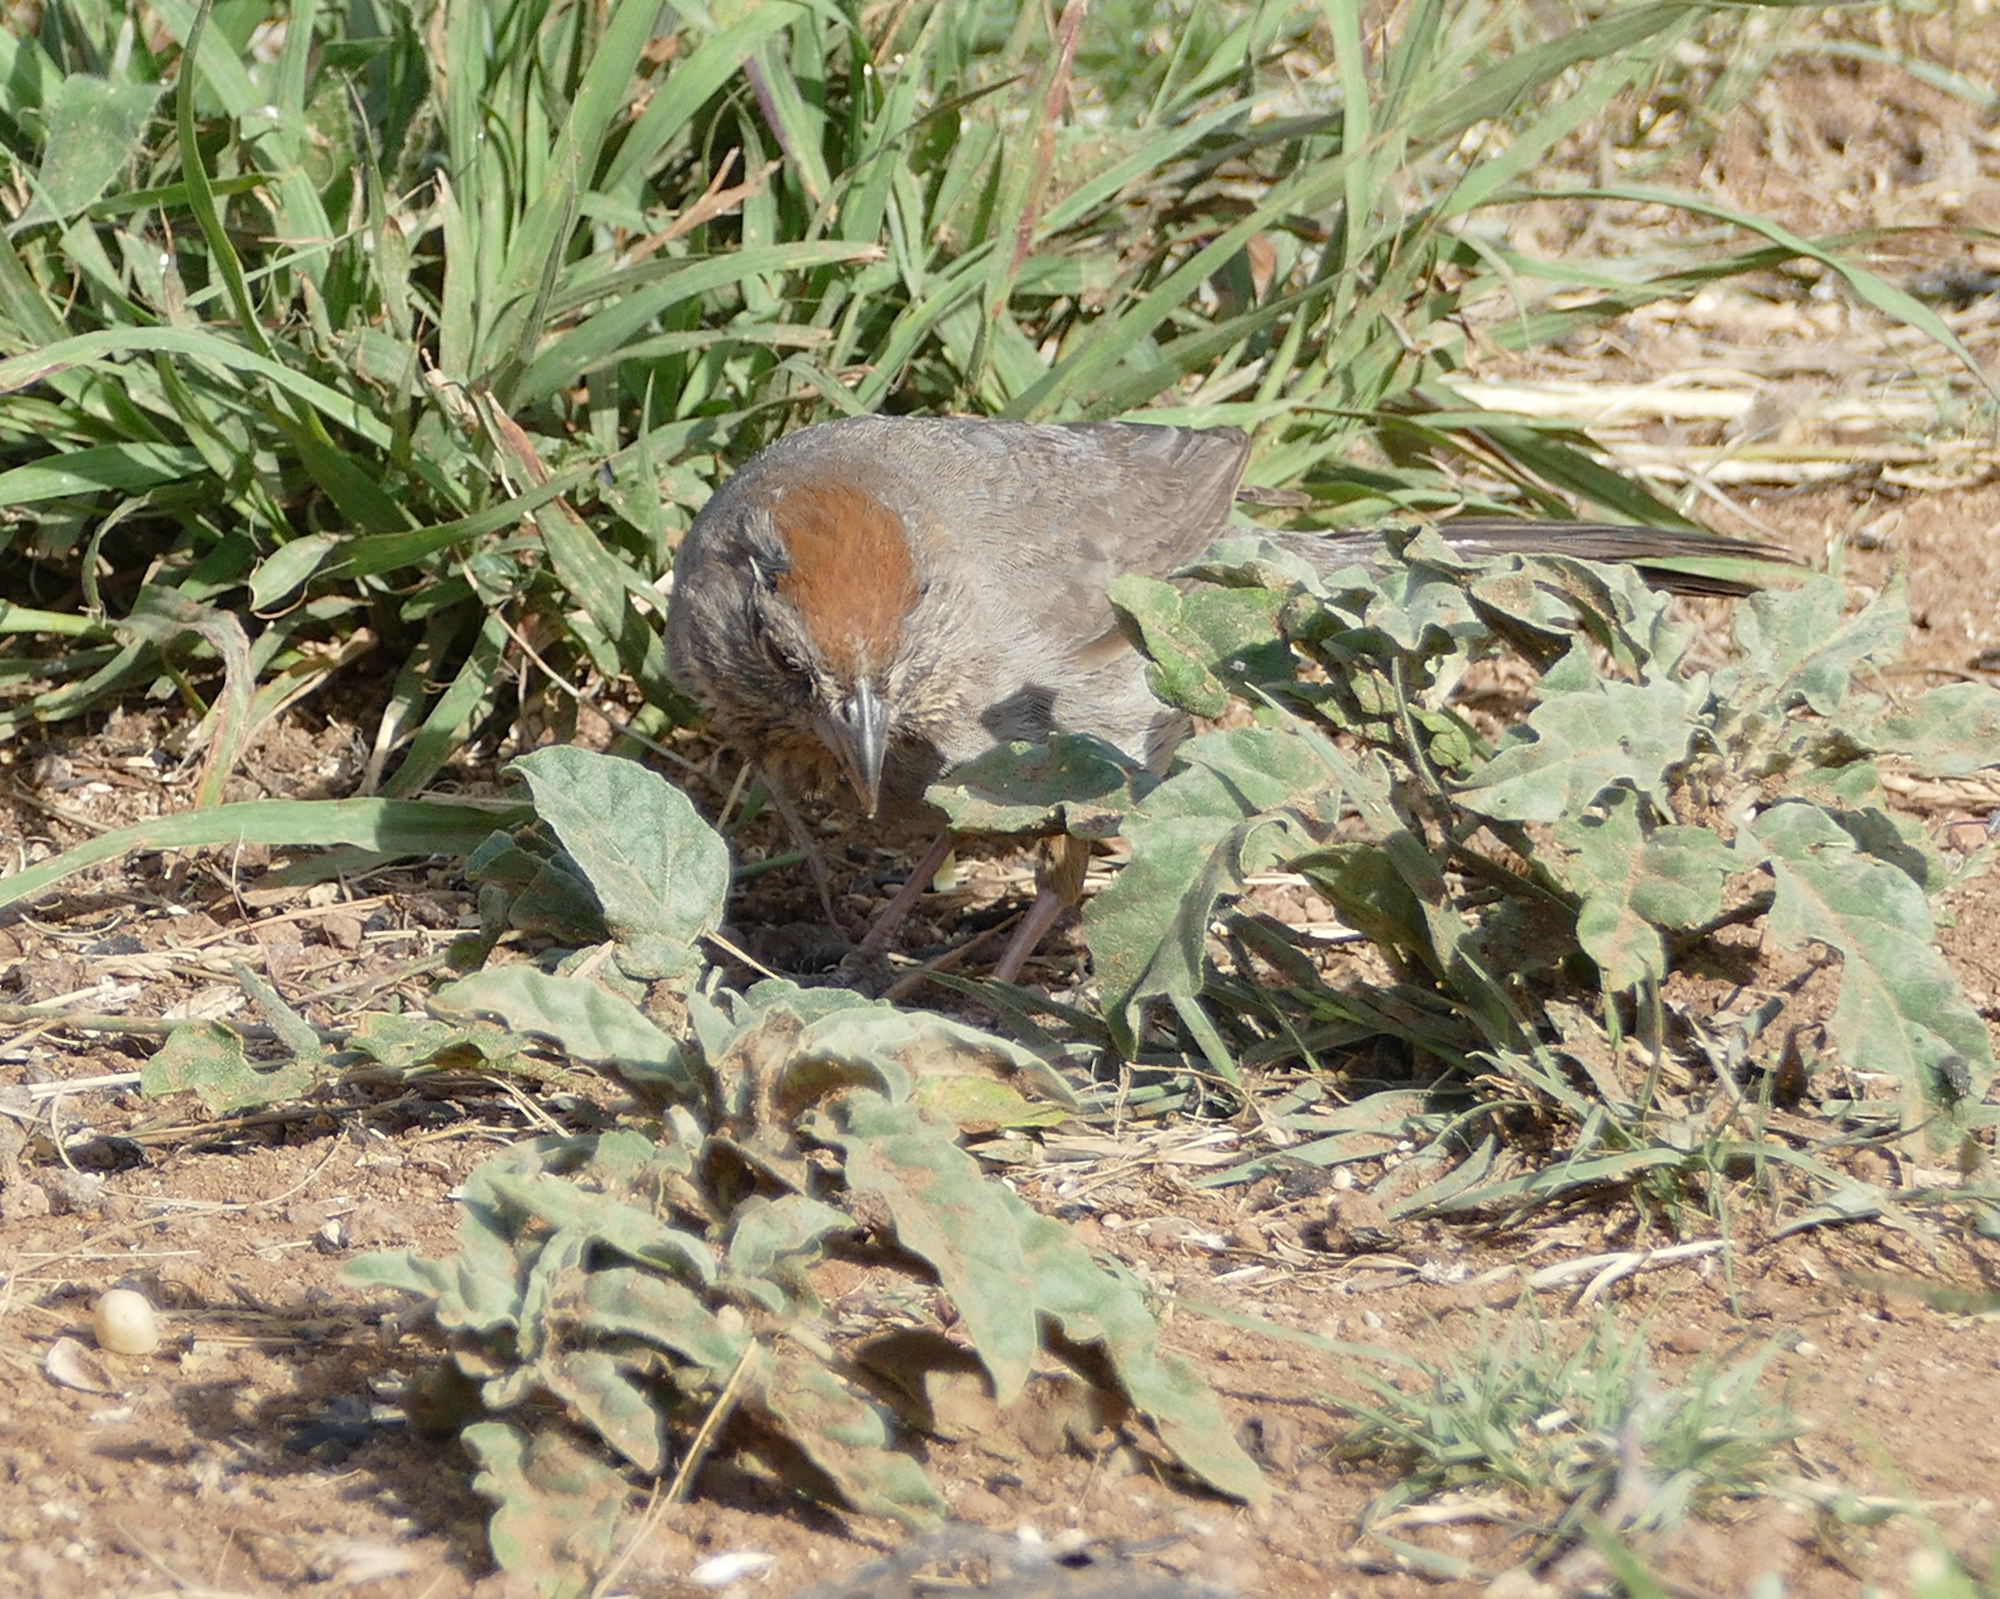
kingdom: Animalia
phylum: Chordata
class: Aves
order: Passeriformes
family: Passerellidae
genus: Melozone
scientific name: Melozone fusca
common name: Canyon towhee
